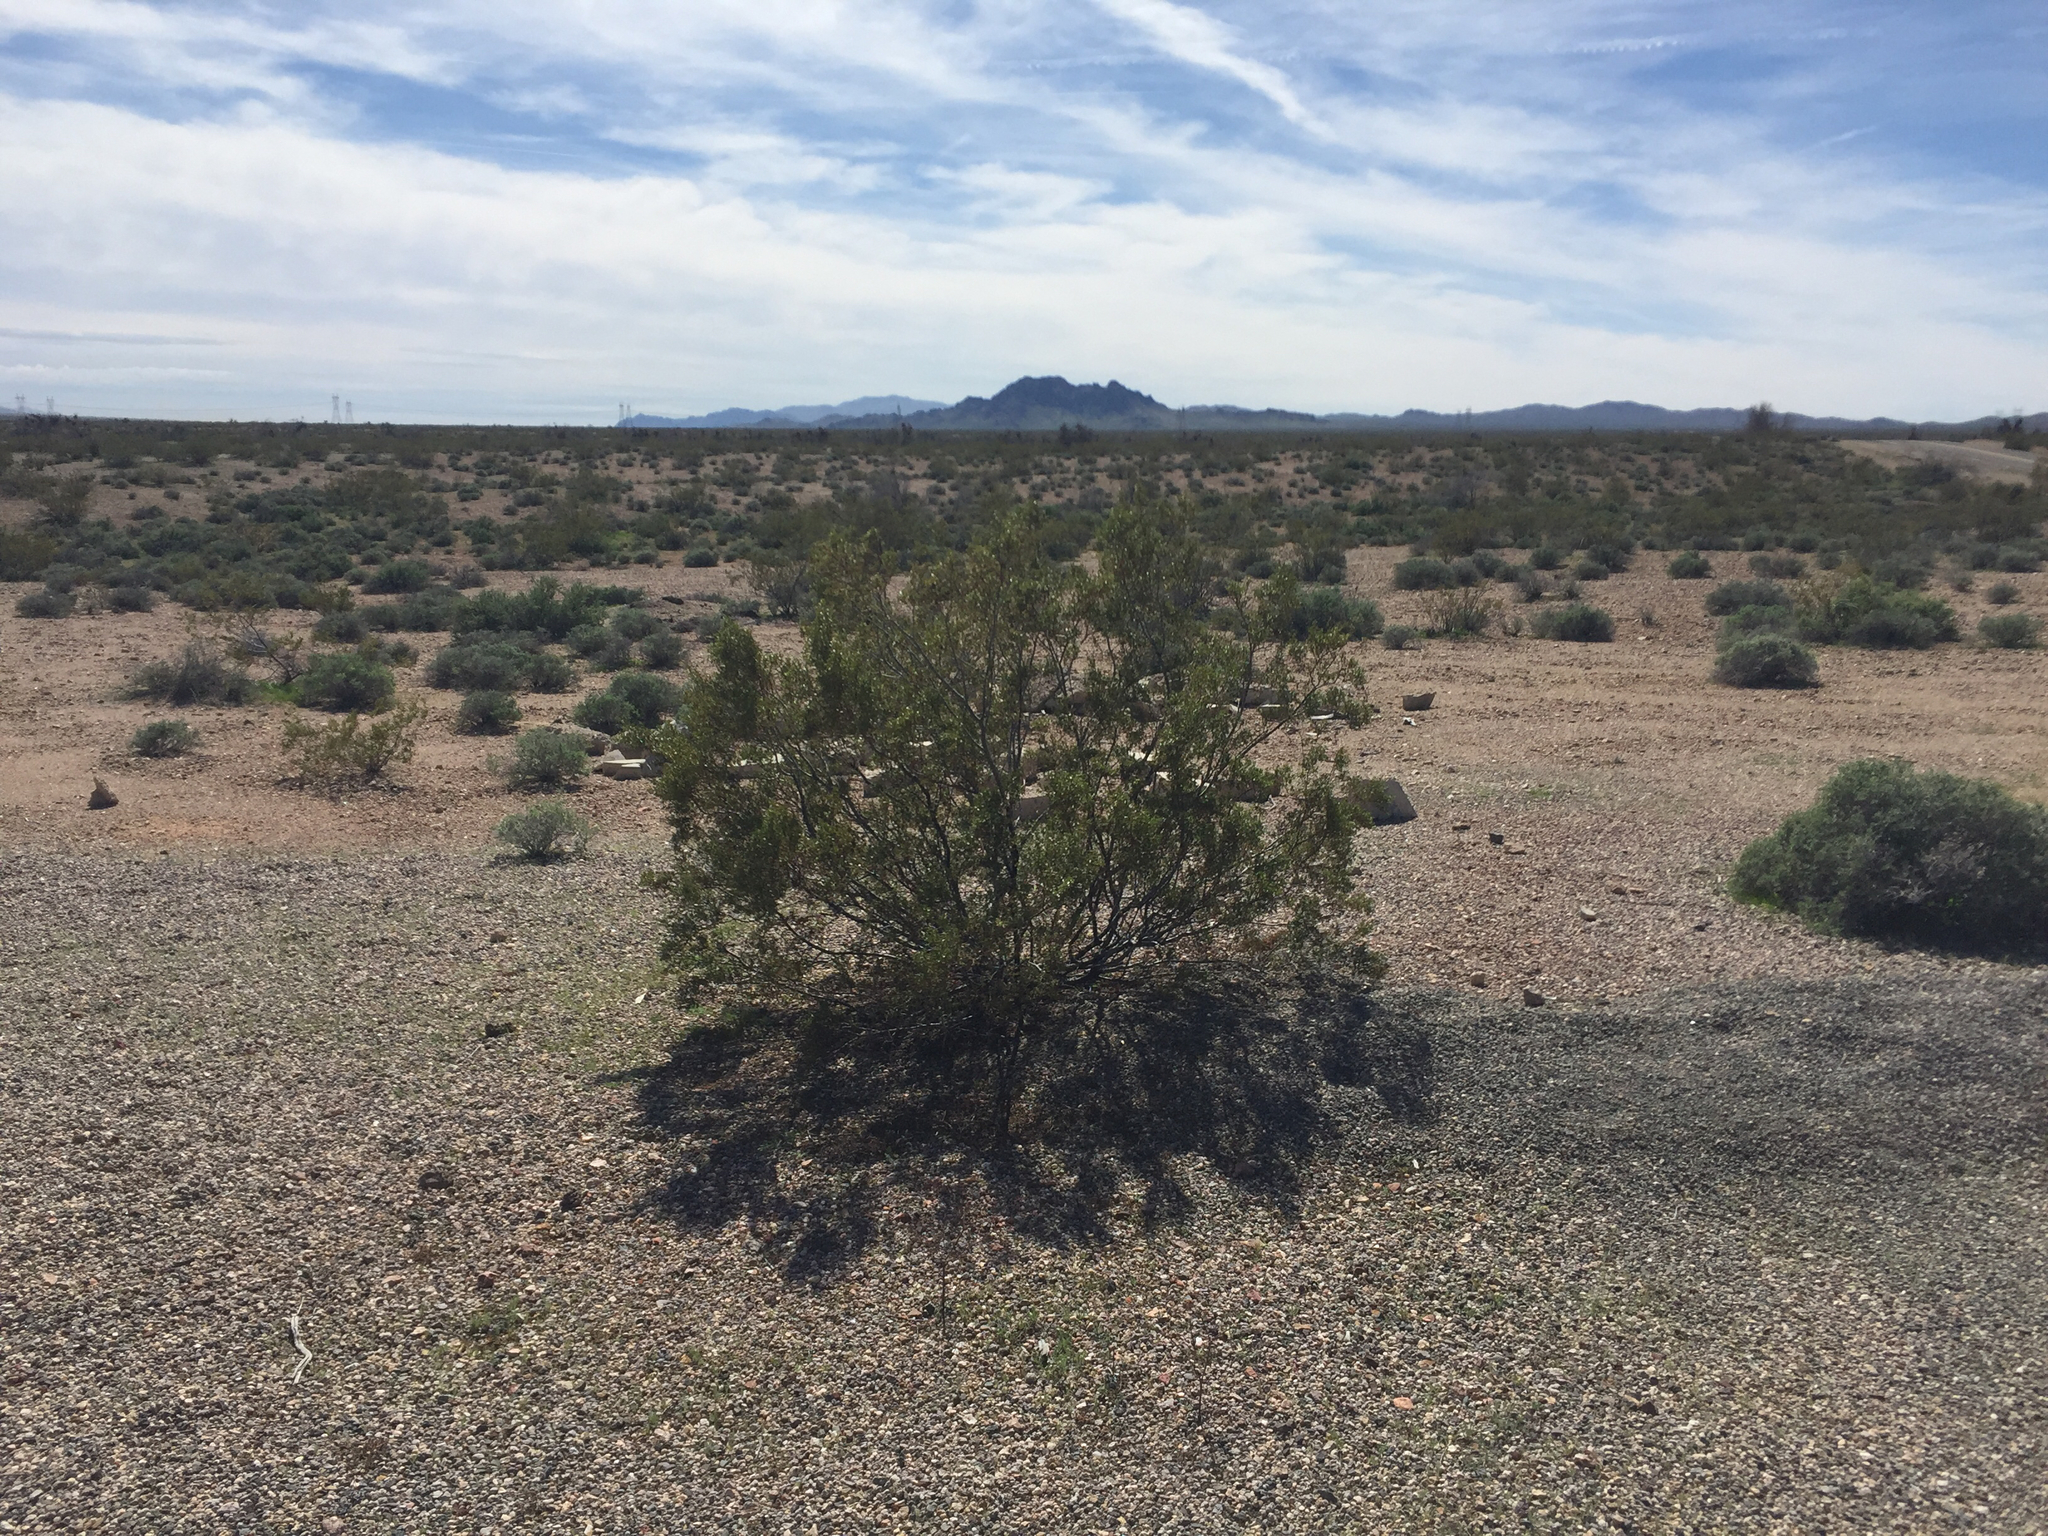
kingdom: Plantae
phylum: Tracheophyta
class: Magnoliopsida
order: Zygophyllales
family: Zygophyllaceae
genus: Larrea
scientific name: Larrea tridentata
